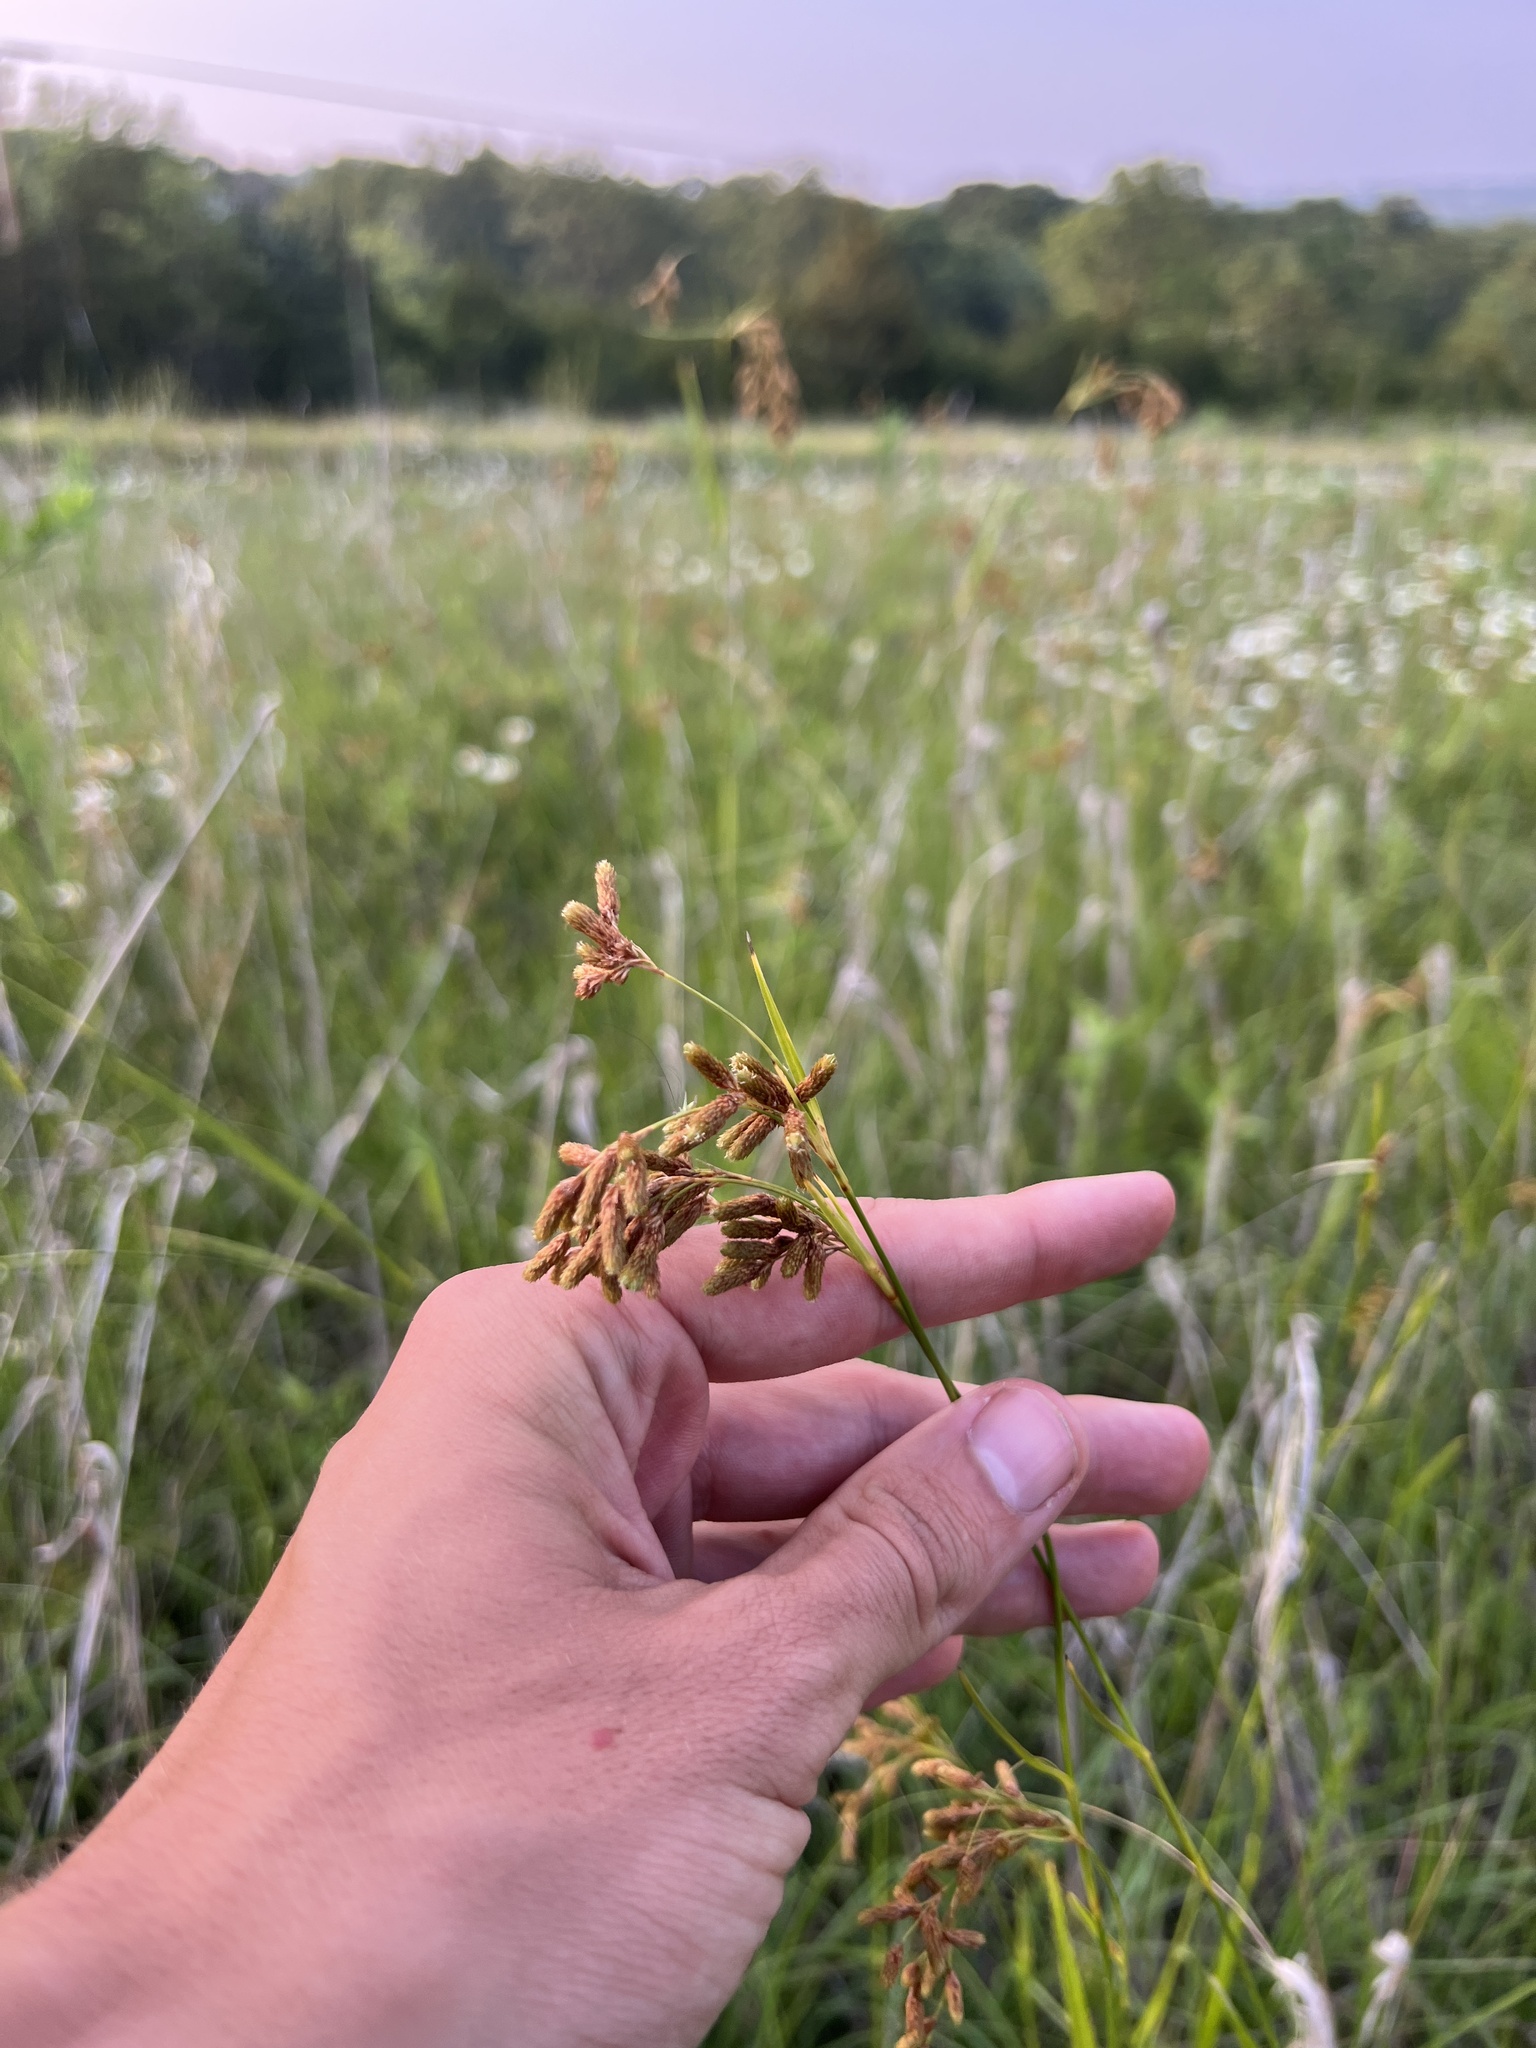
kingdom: Plantae
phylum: Tracheophyta
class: Liliopsida
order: Poales
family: Cyperaceae
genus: Scirpus
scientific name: Scirpus pendulus
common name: Nodding bulrush
